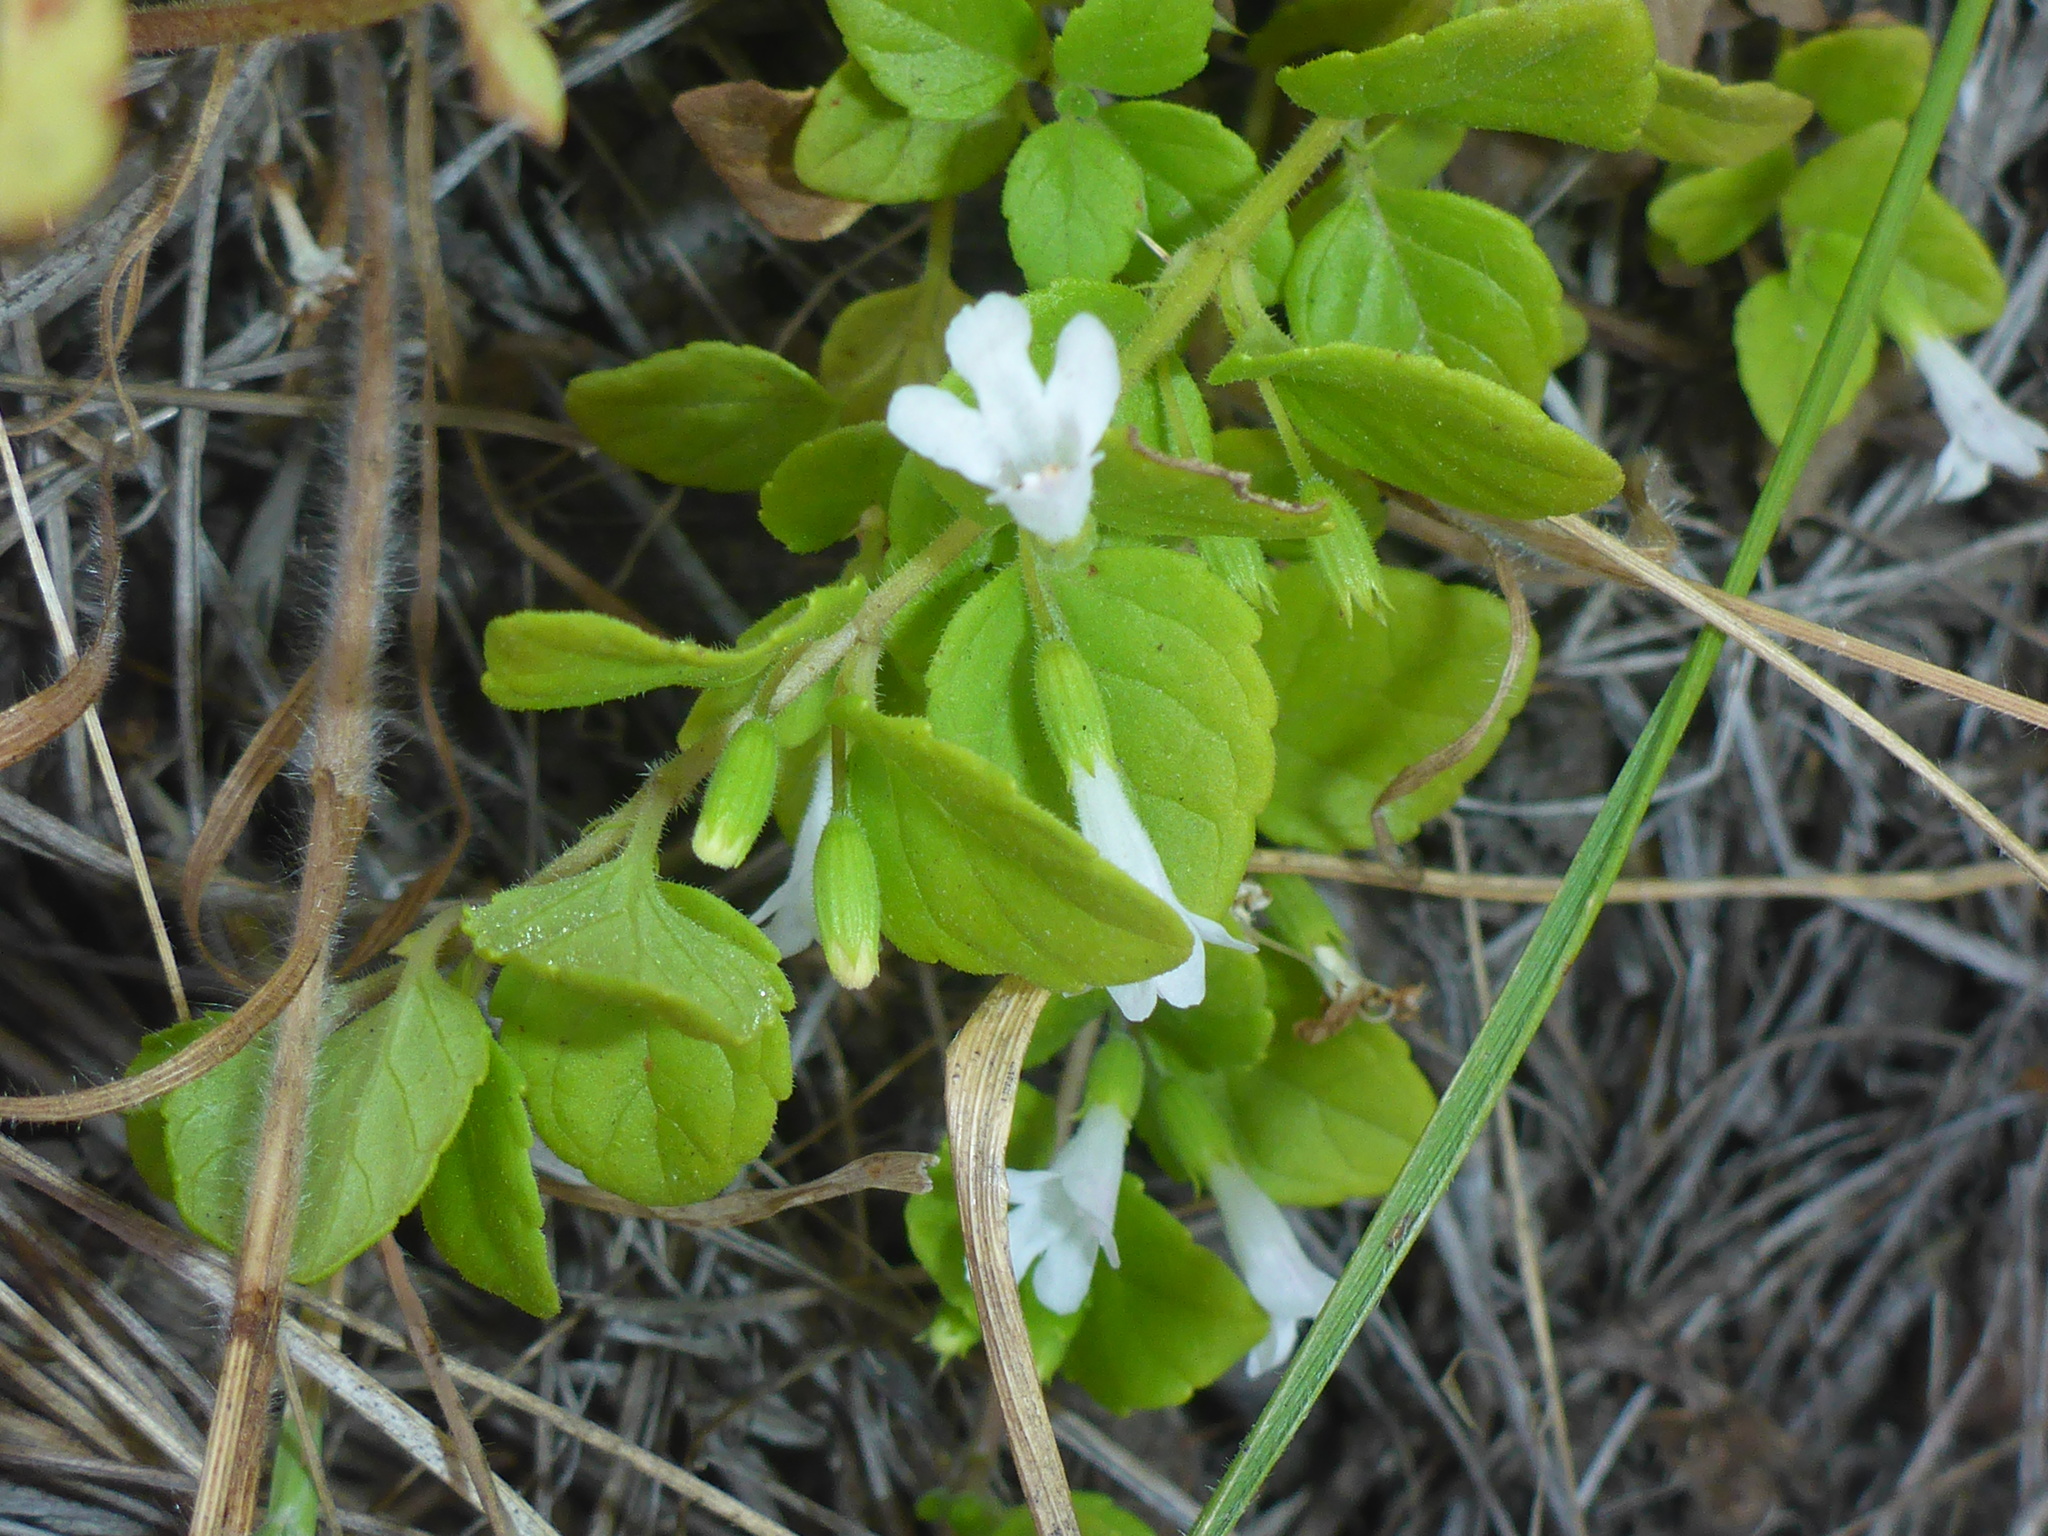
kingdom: Plantae
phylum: Tracheophyta
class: Magnoliopsida
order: Lamiales
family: Lamiaceae
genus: Micromeria
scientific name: Micromeria douglasii
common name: Yerba buena
